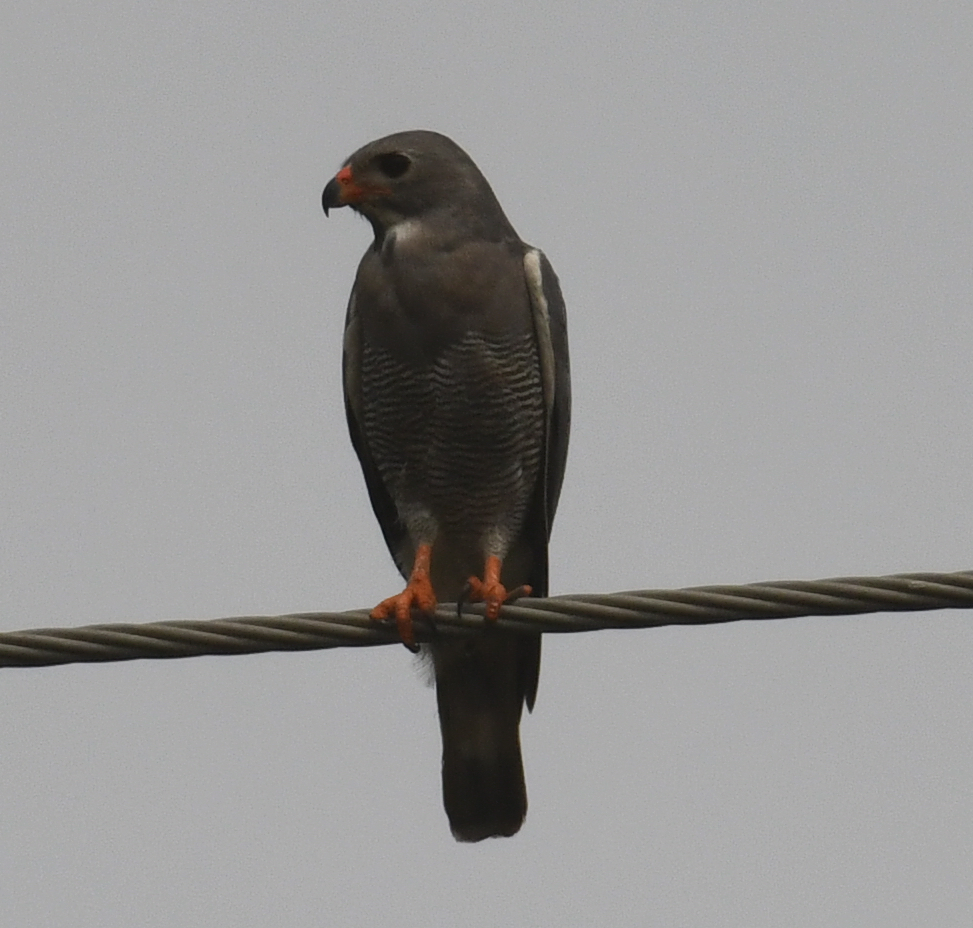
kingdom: Animalia
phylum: Chordata
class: Aves
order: Accipitriformes
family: Accipitridae
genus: Kaupifalco
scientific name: Kaupifalco monogrammicus
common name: Lizard buzzard
